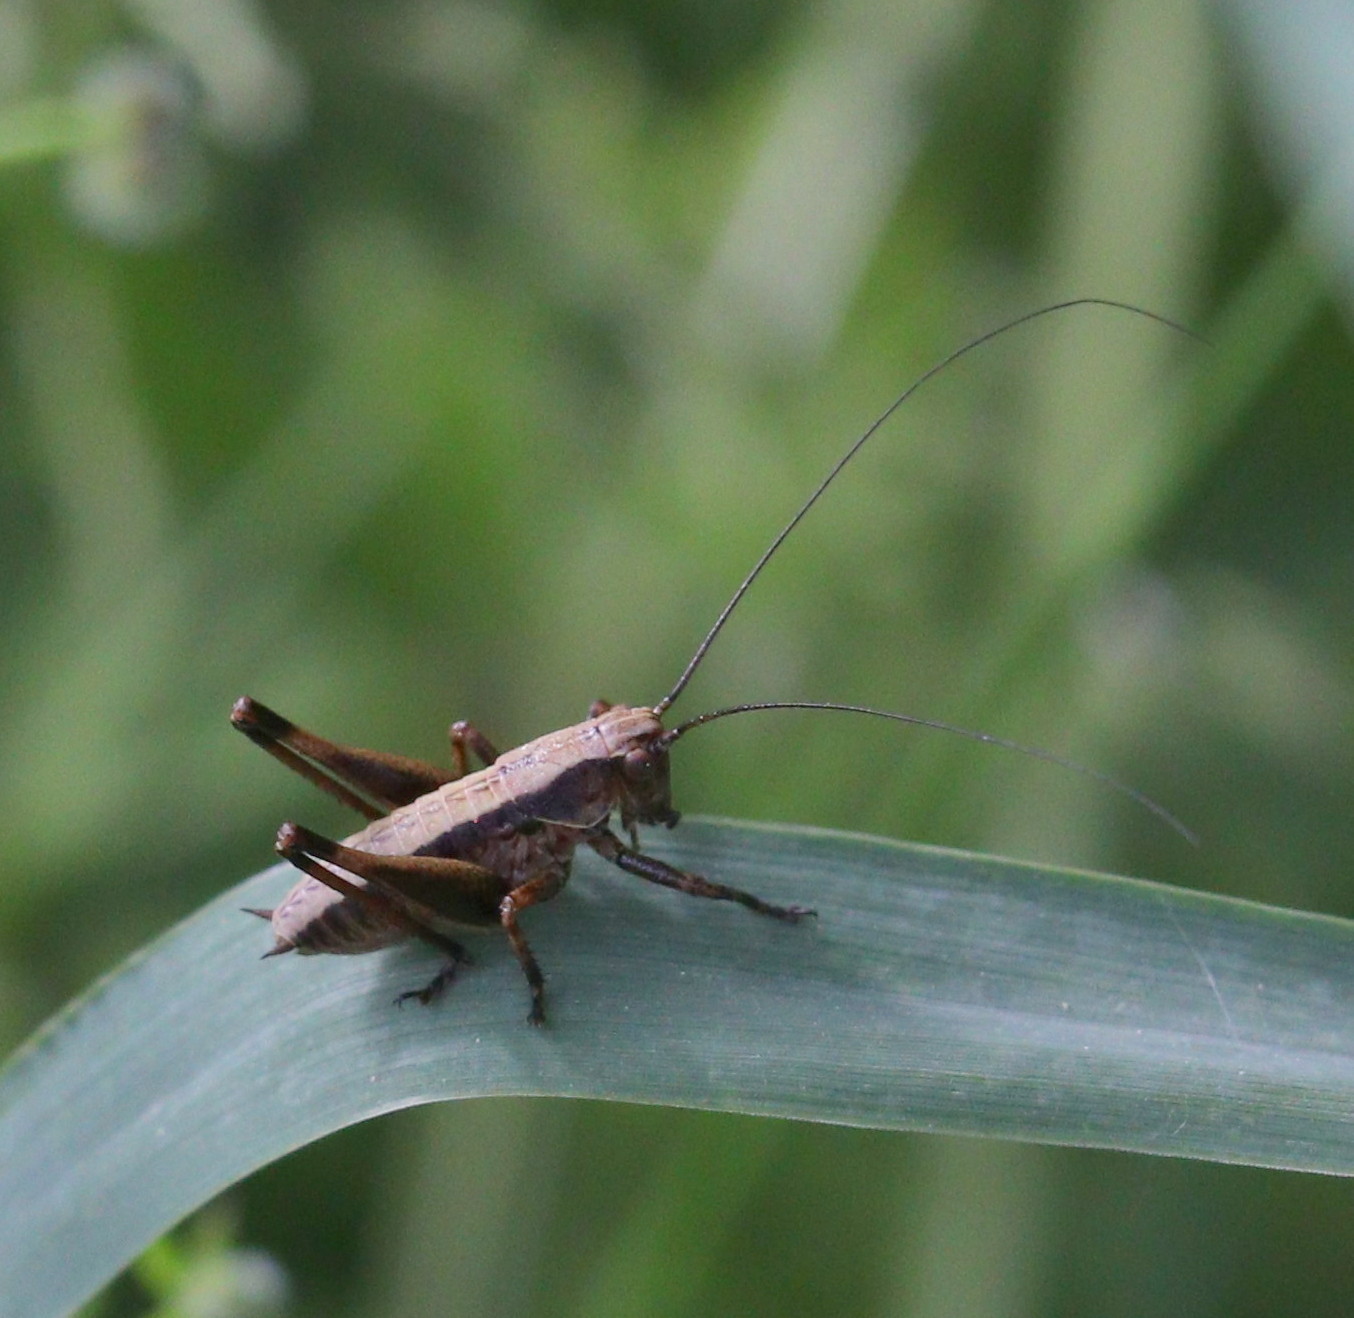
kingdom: Animalia
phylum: Arthropoda
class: Insecta
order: Orthoptera
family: Tettigoniidae
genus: Pholidoptera
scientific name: Pholidoptera griseoaptera
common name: Dark bush-cricket
